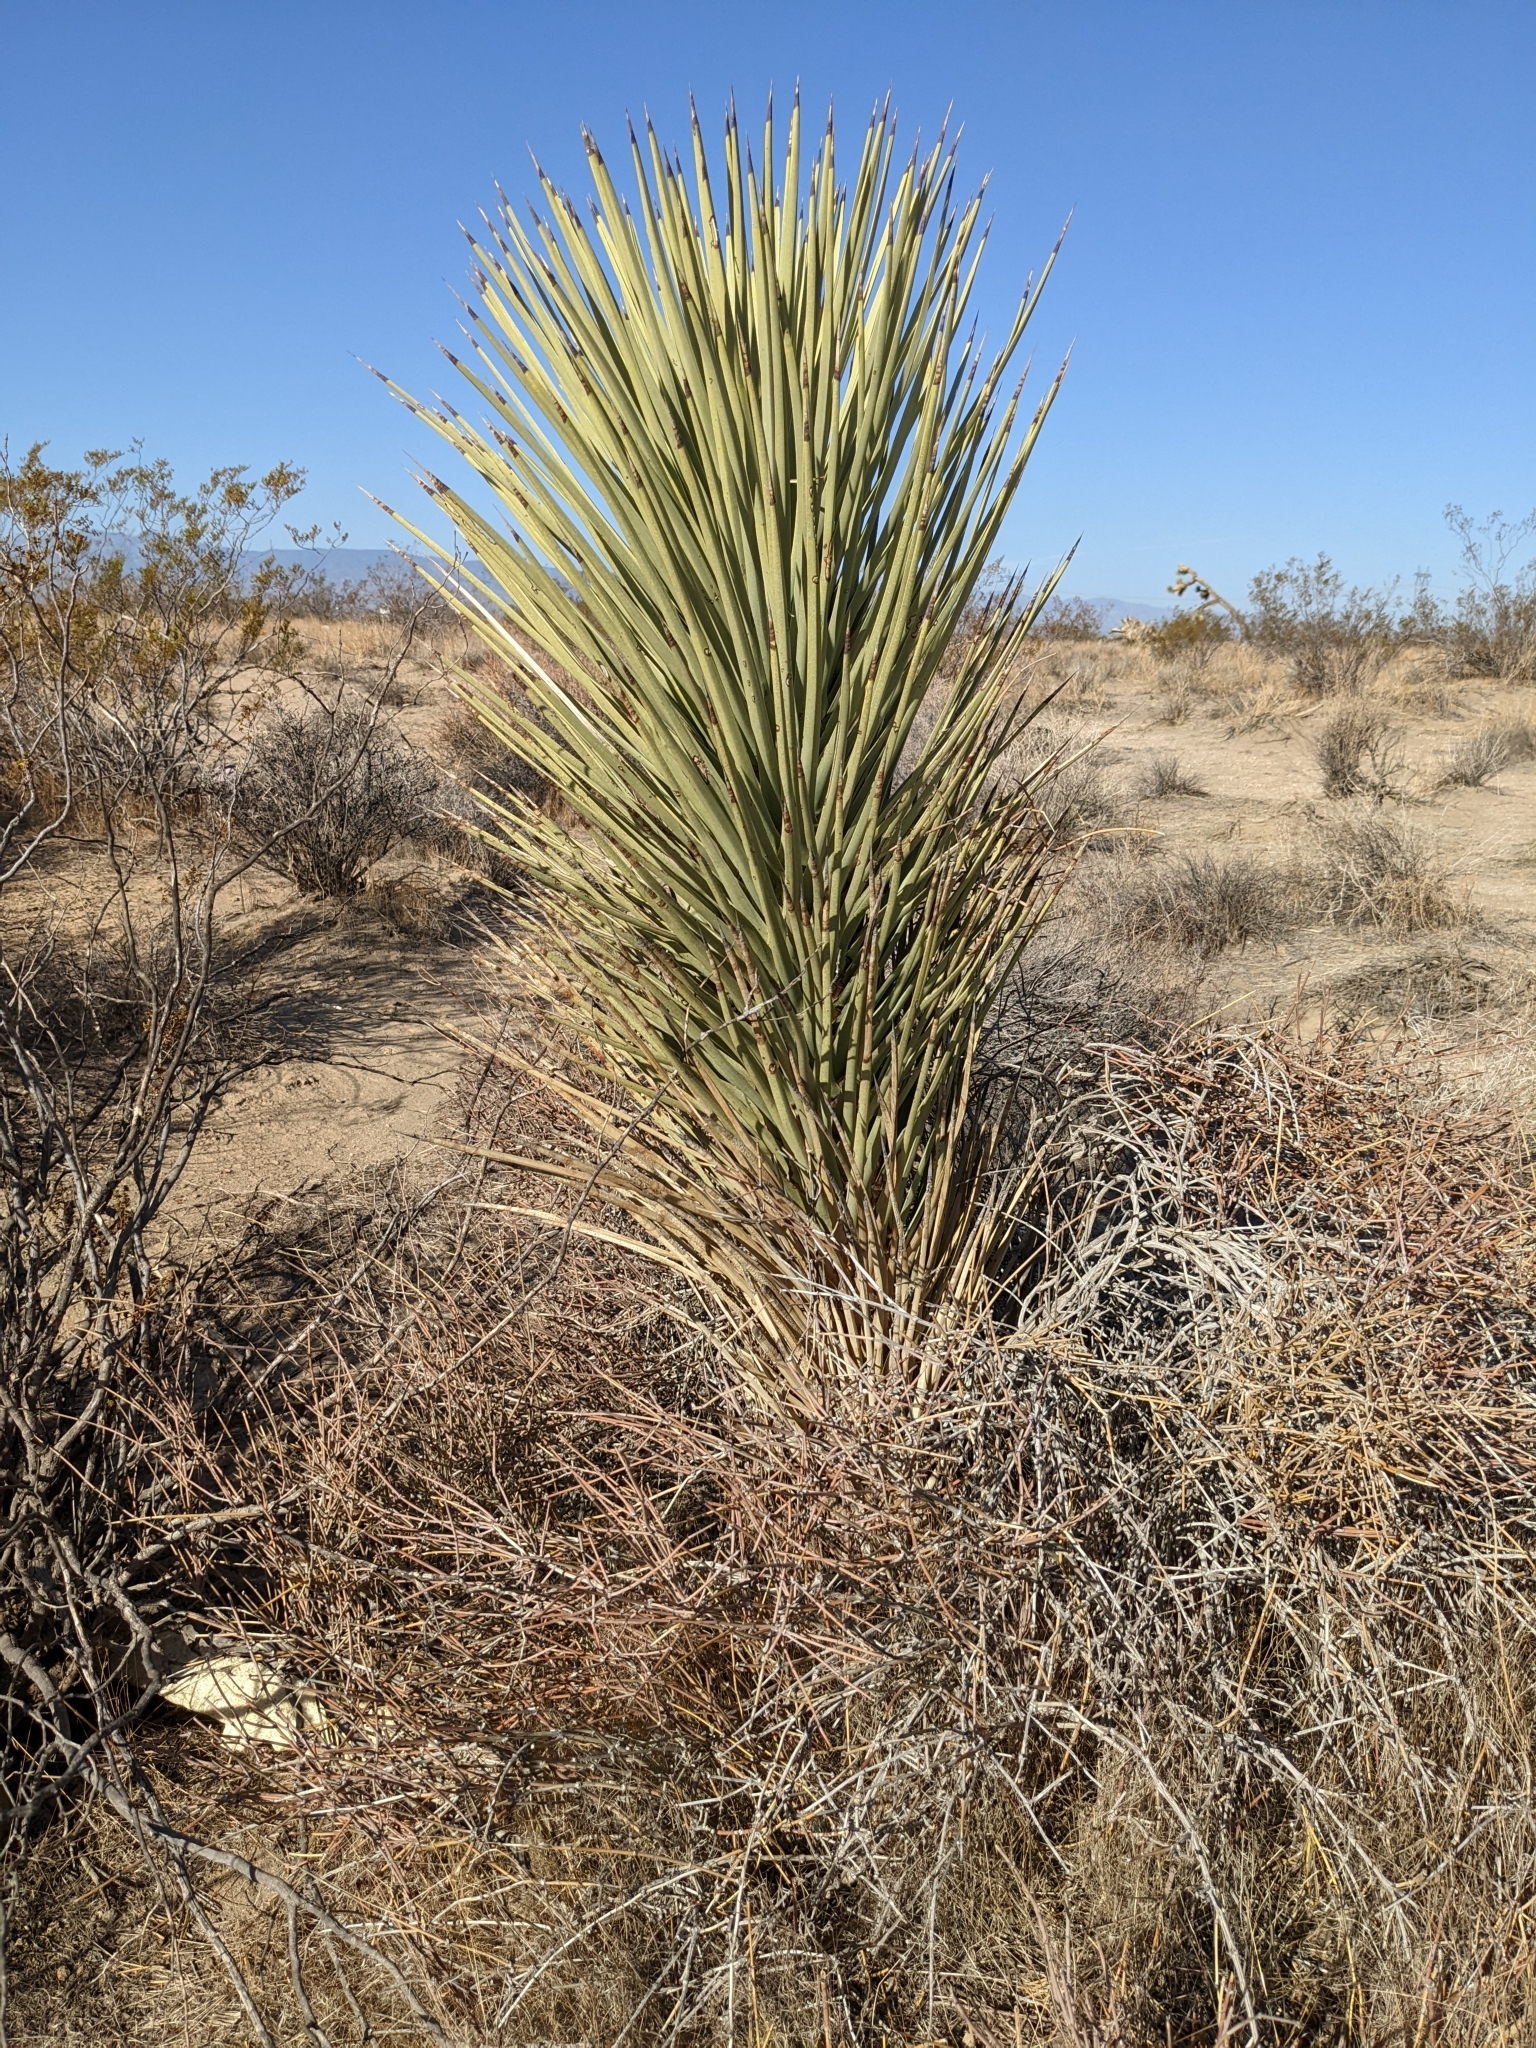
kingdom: Plantae
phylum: Tracheophyta
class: Liliopsida
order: Asparagales
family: Asparagaceae
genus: Yucca
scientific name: Yucca brevifolia
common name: Joshua tree
